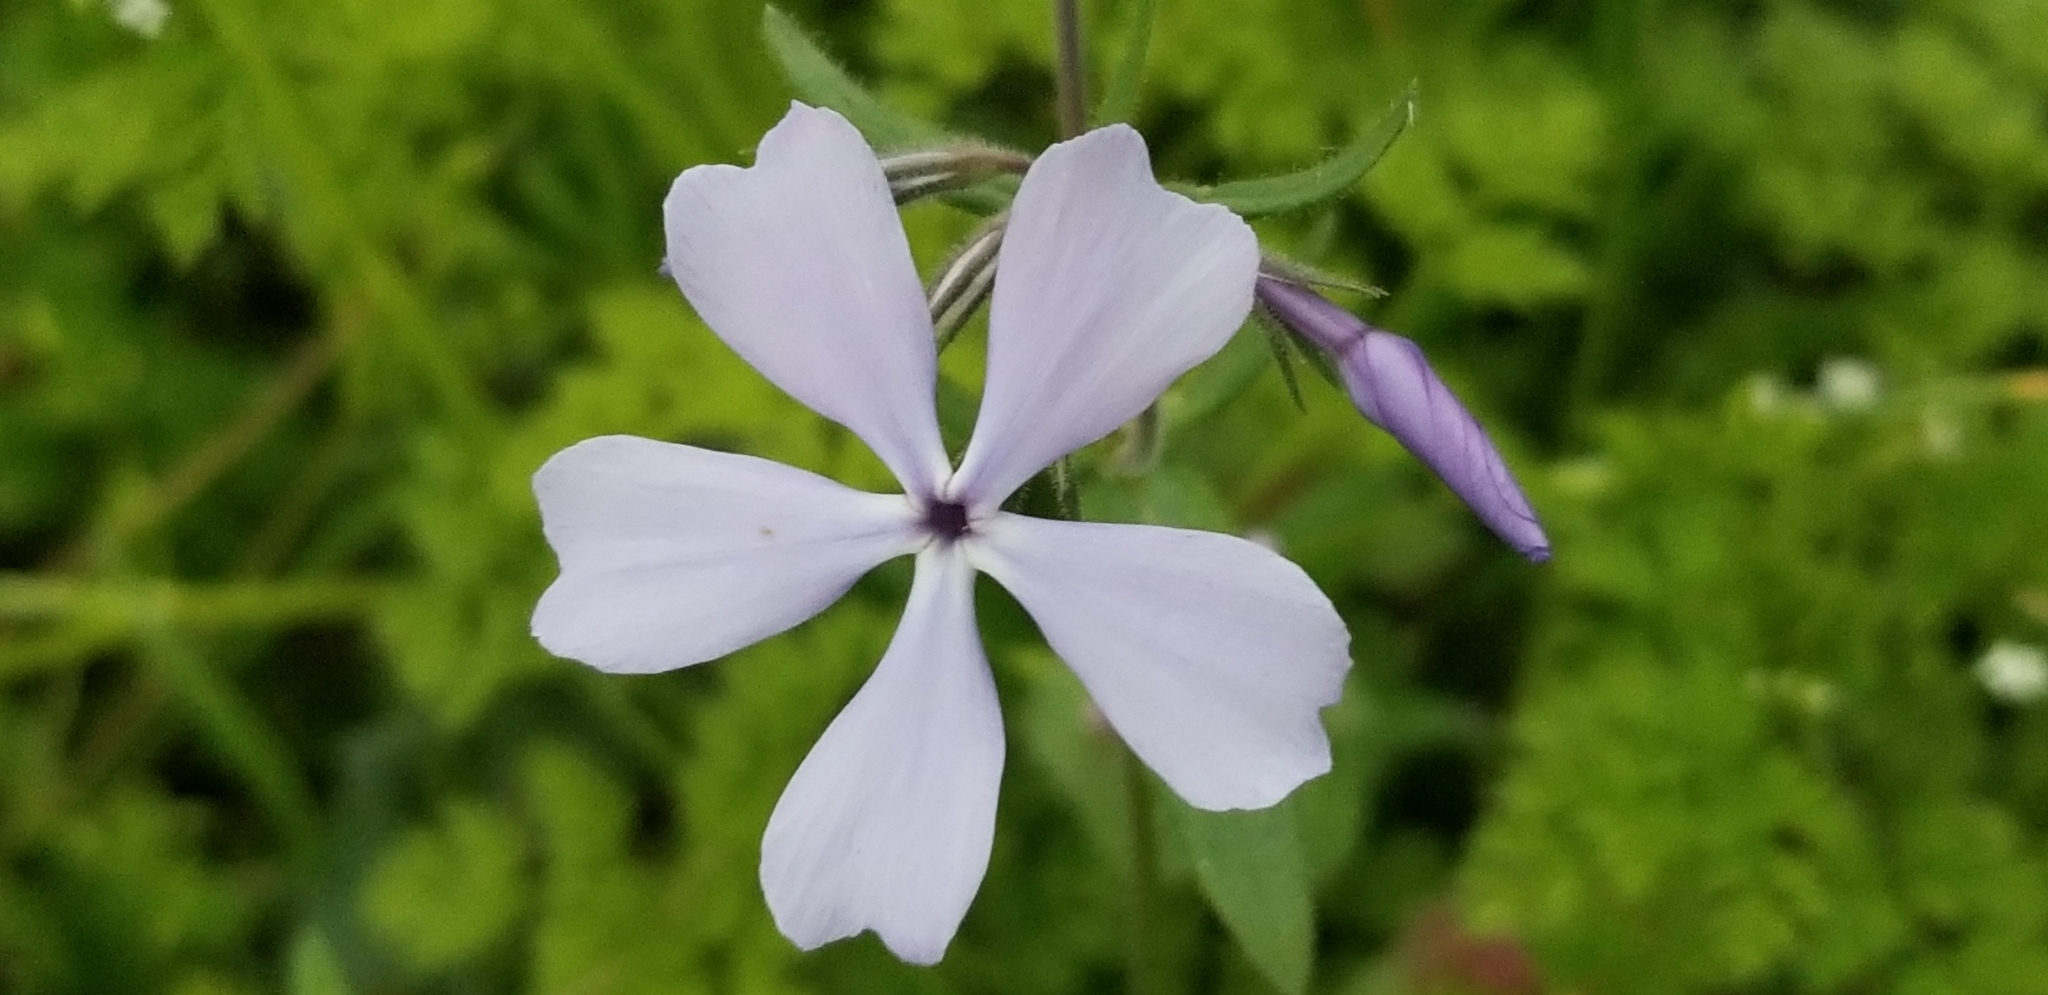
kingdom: Plantae
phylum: Tracheophyta
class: Magnoliopsida
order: Ericales
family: Polemoniaceae
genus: Phlox
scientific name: Phlox divaricata
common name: Blue phlox
